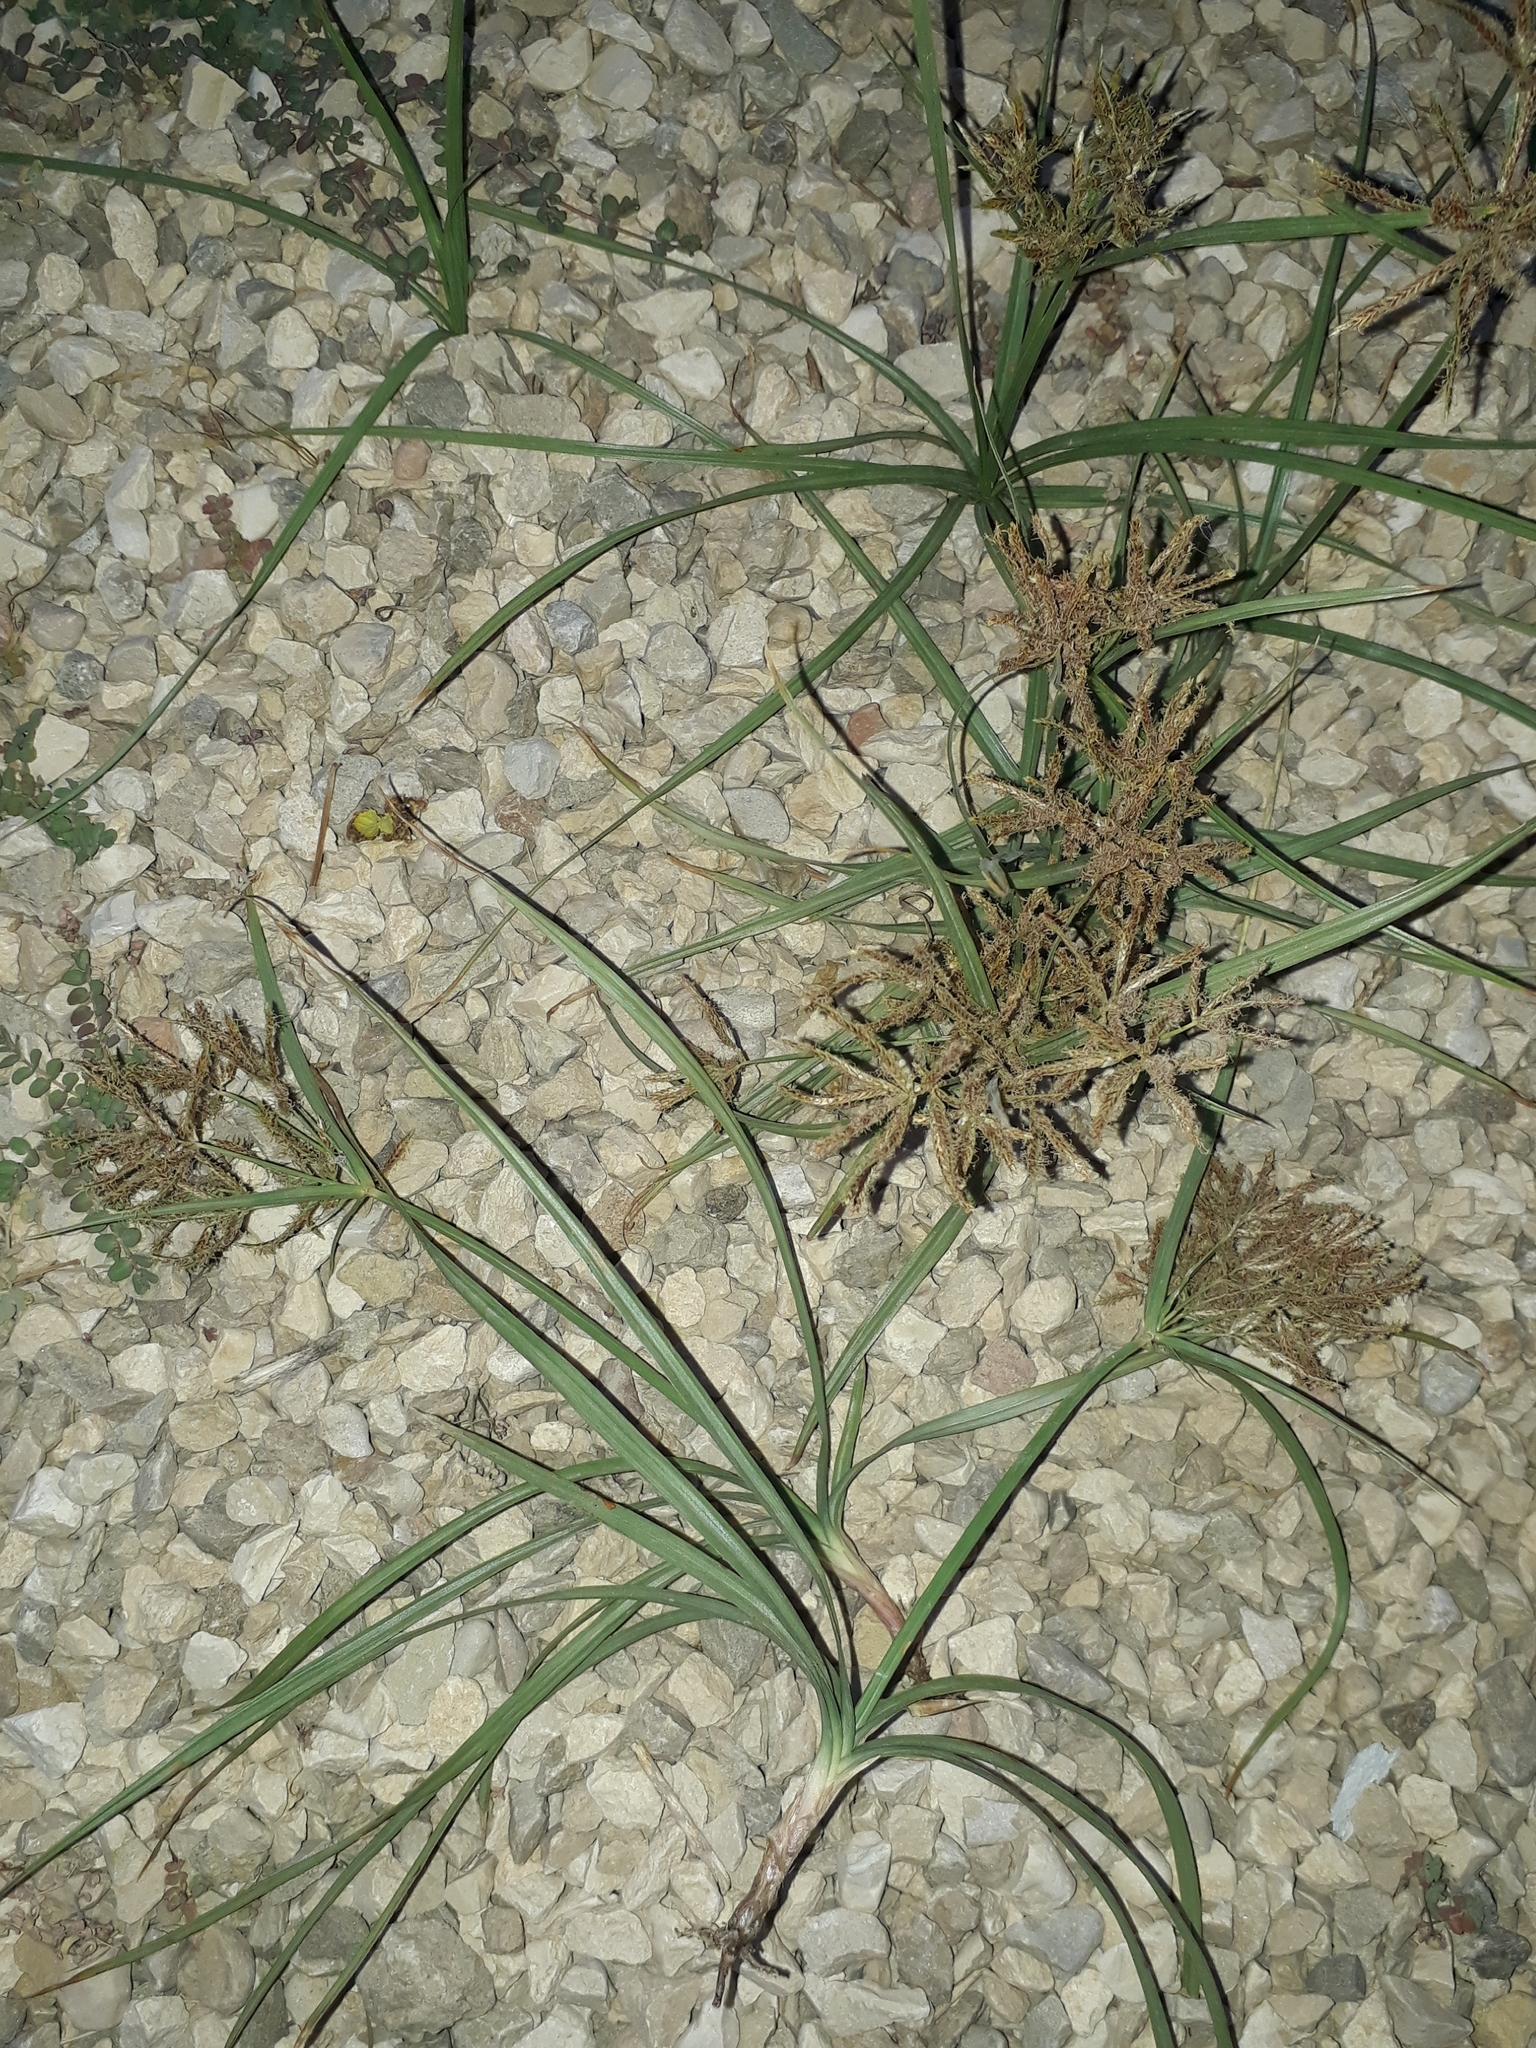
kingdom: Plantae
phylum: Tracheophyta
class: Liliopsida
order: Poales
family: Cyperaceae
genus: Cyperus
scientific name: Cyperus rotundus
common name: Nutgrass
